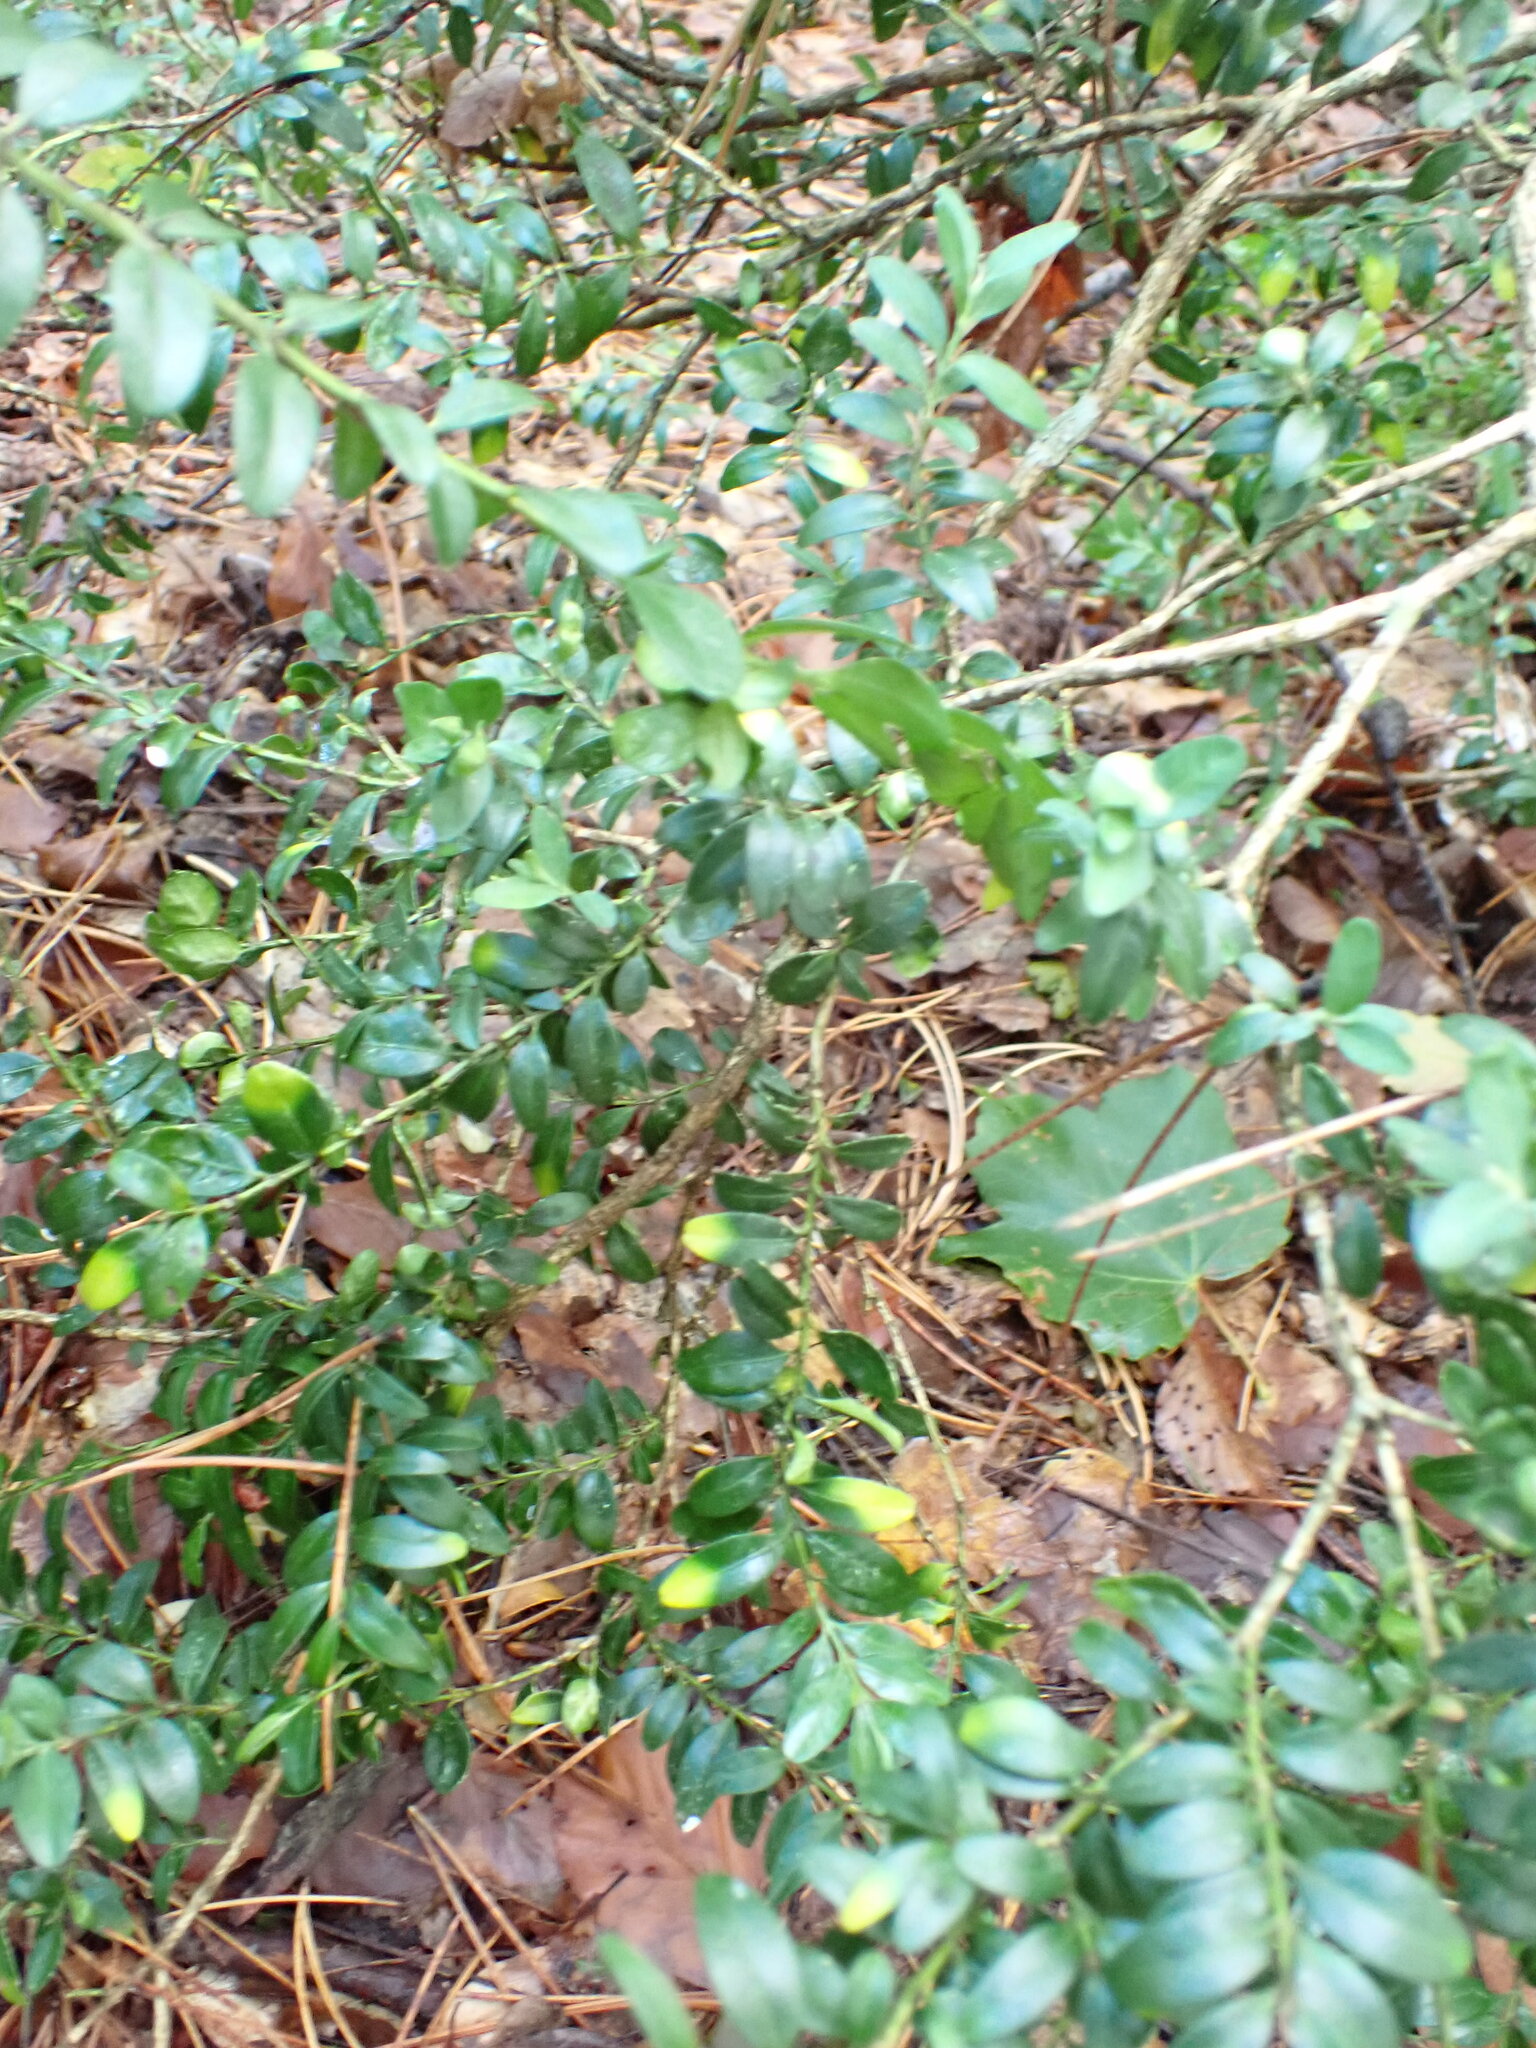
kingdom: Plantae
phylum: Tracheophyta
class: Magnoliopsida
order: Buxales
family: Buxaceae
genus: Buxus
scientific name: Buxus sempervirens
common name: Box
